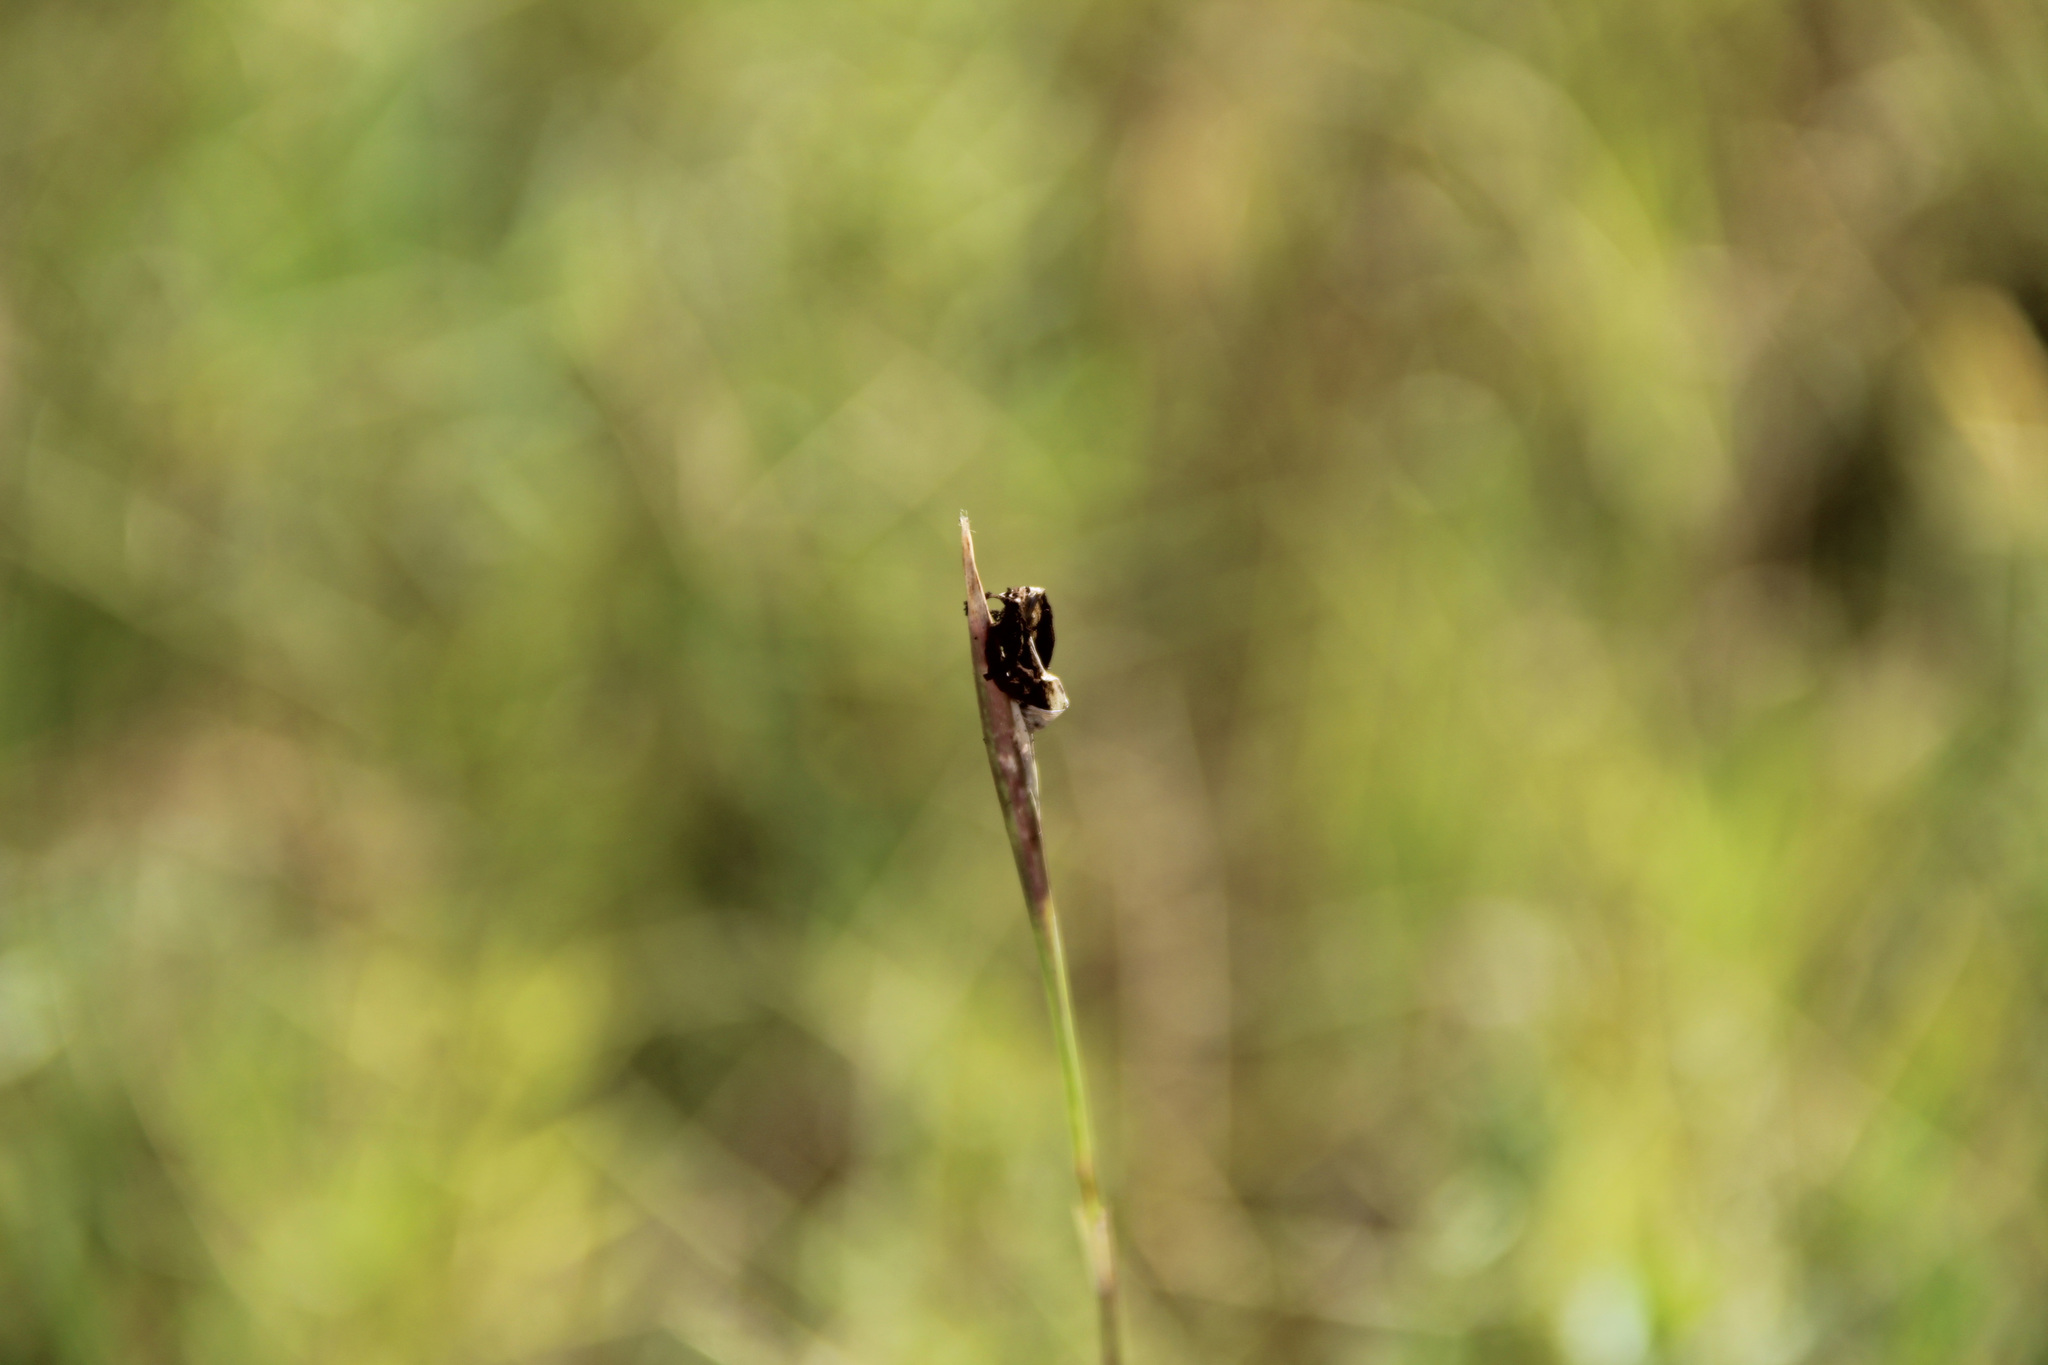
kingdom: Fungi
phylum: Basidiomycota
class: Ustilaginomycetes
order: Ustilaginales
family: Ustilaginaceae
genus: Ustilago
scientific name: Ustilago cynodontis
